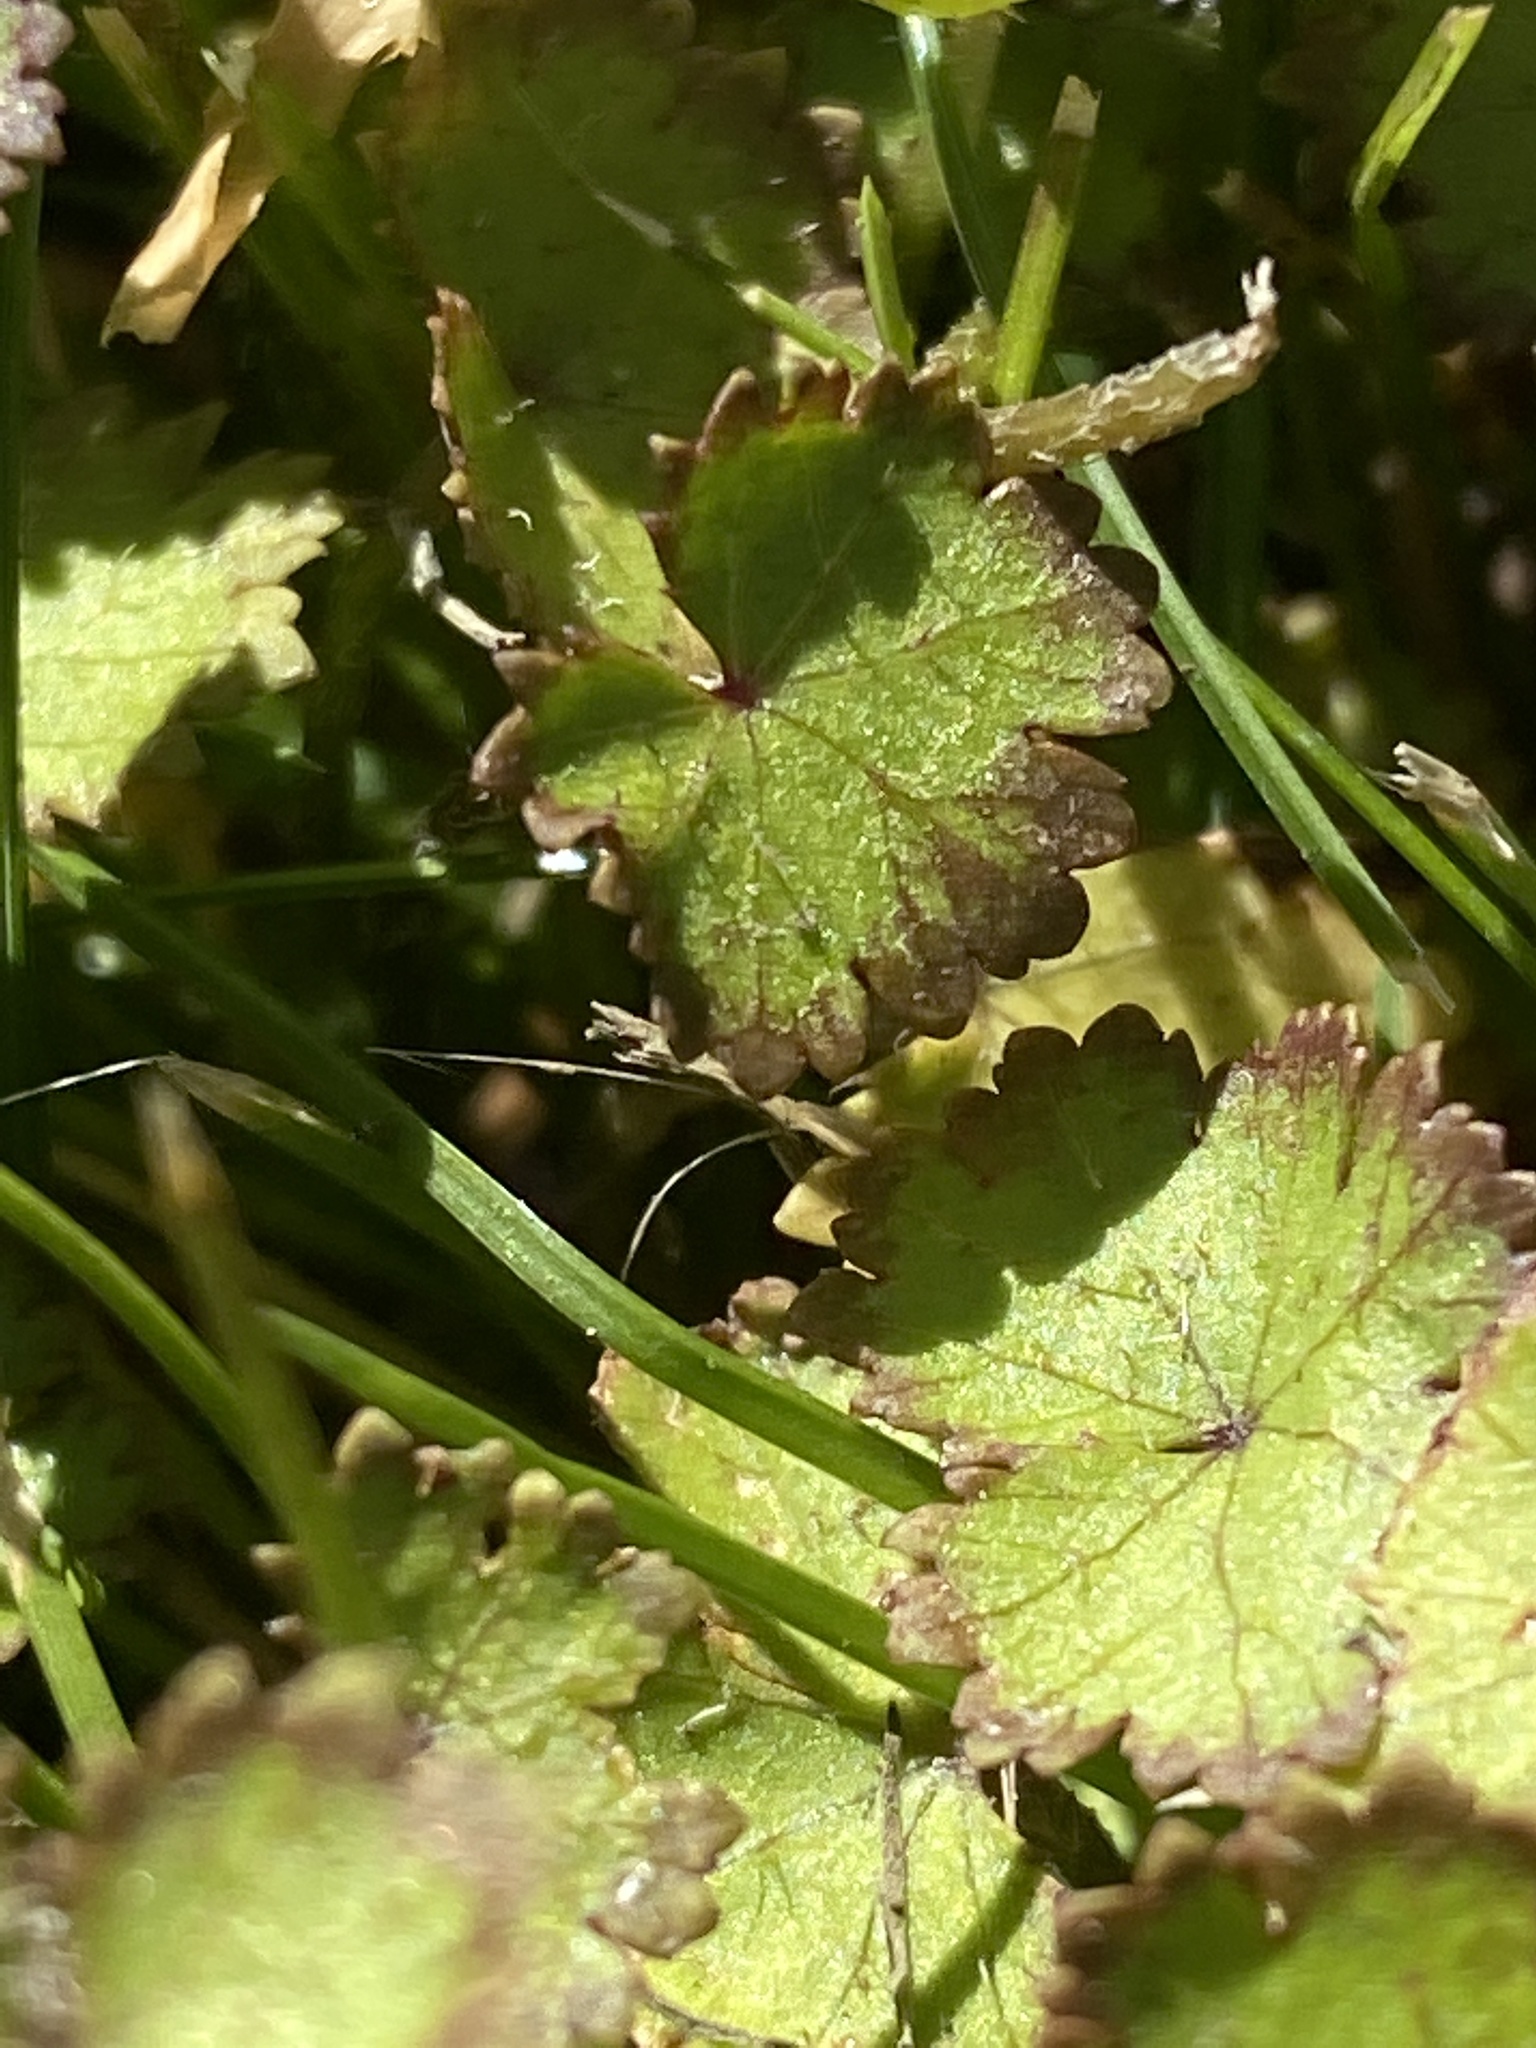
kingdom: Plantae
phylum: Tracheophyta
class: Magnoliopsida
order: Apiales
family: Araliaceae
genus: Hydrocotyle
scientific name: Hydrocotyle moschata
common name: Hairy pennywort
